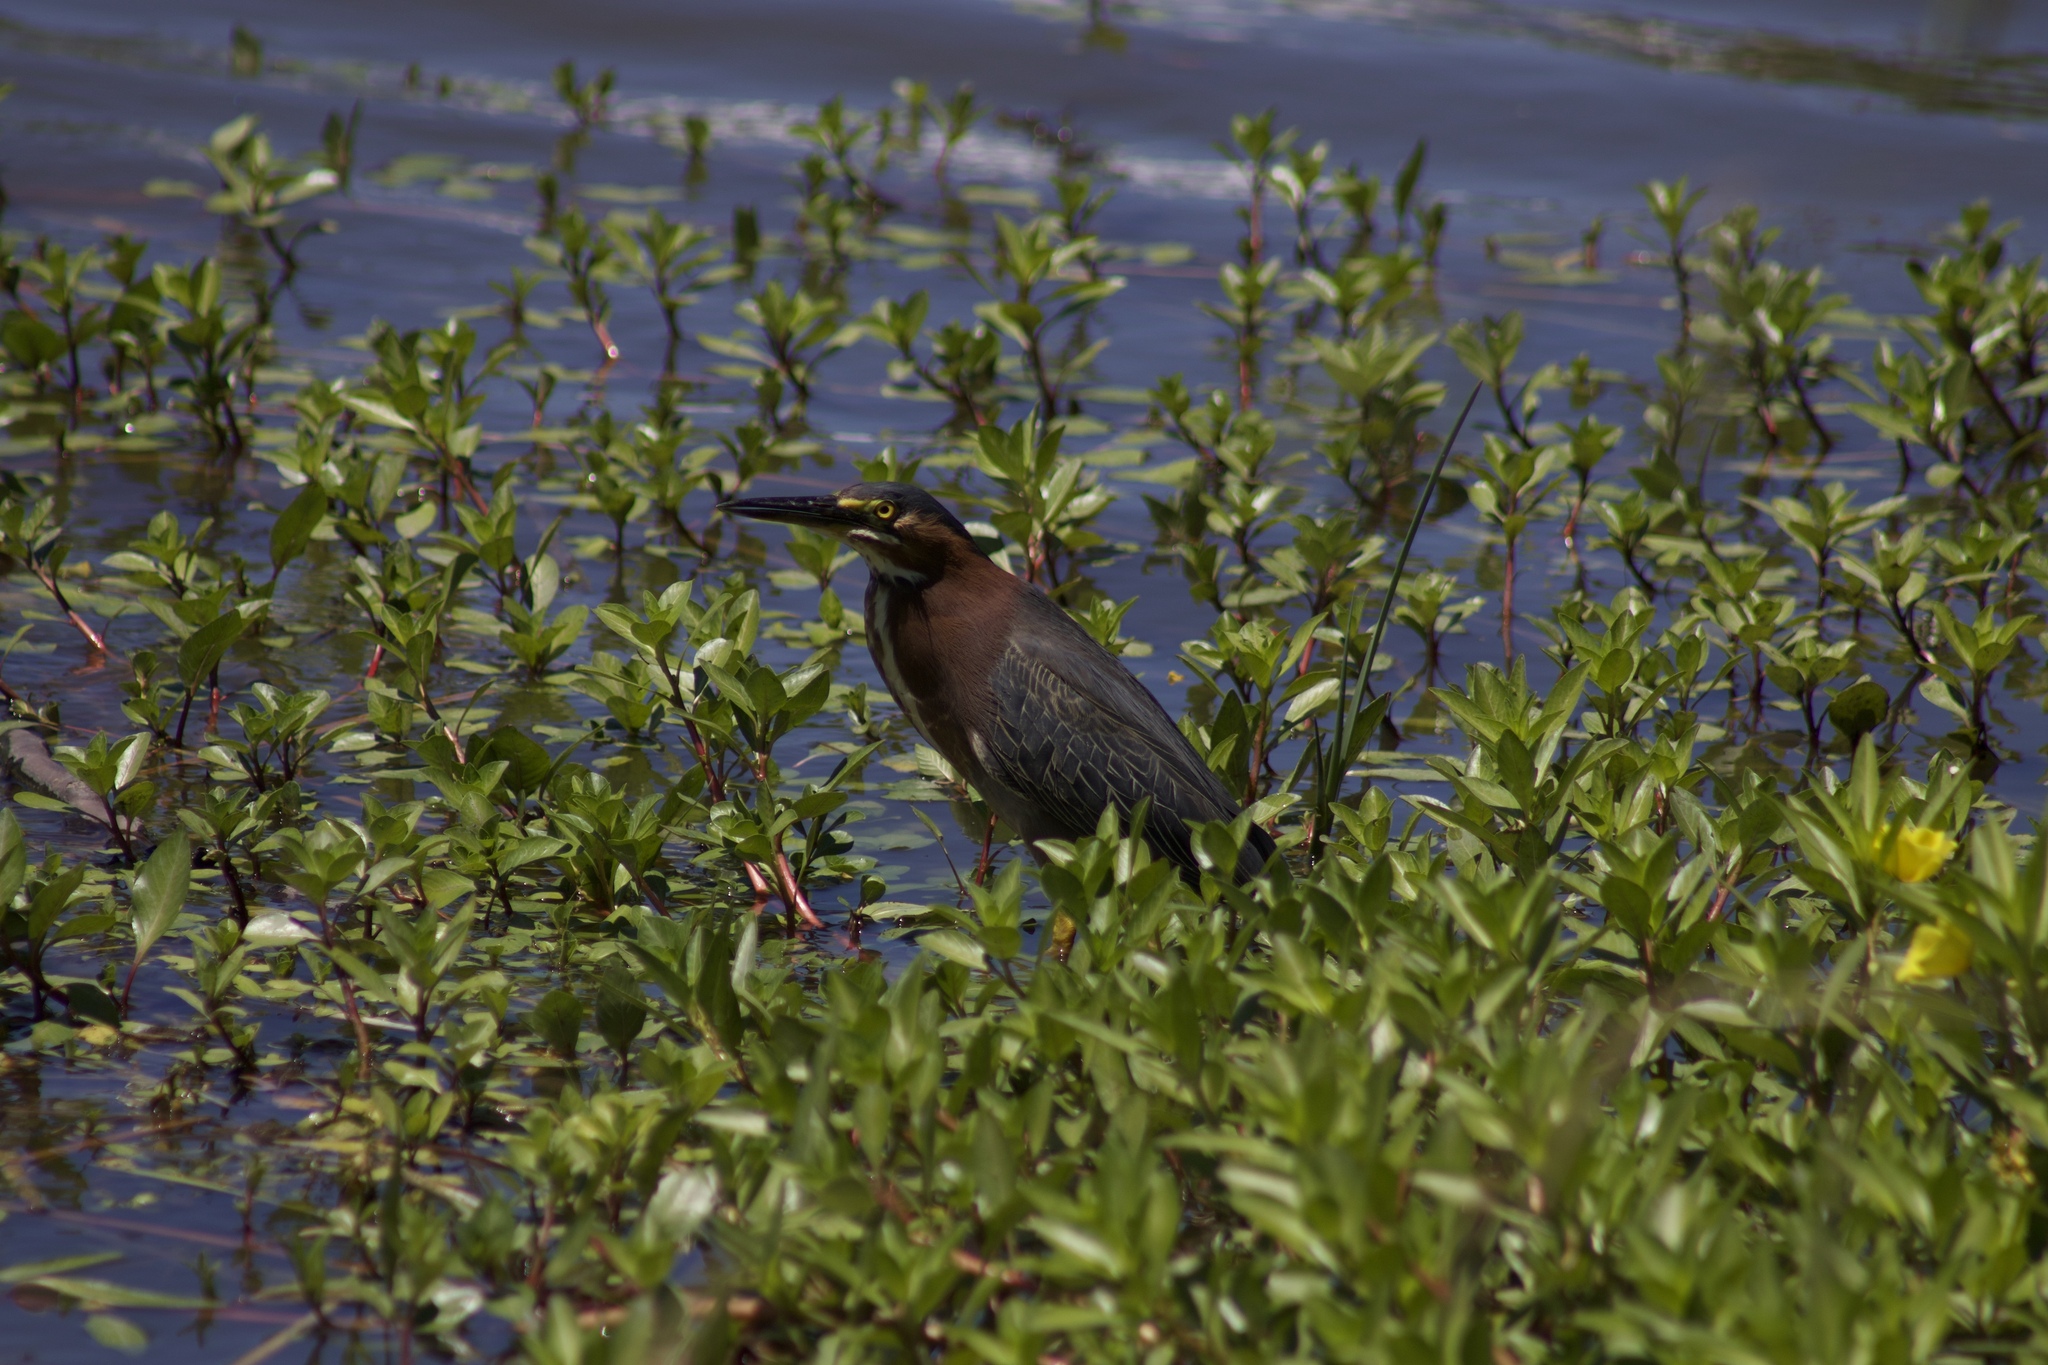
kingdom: Animalia
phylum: Chordata
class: Aves
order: Pelecaniformes
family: Ardeidae
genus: Butorides
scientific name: Butorides virescens
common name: Green heron
